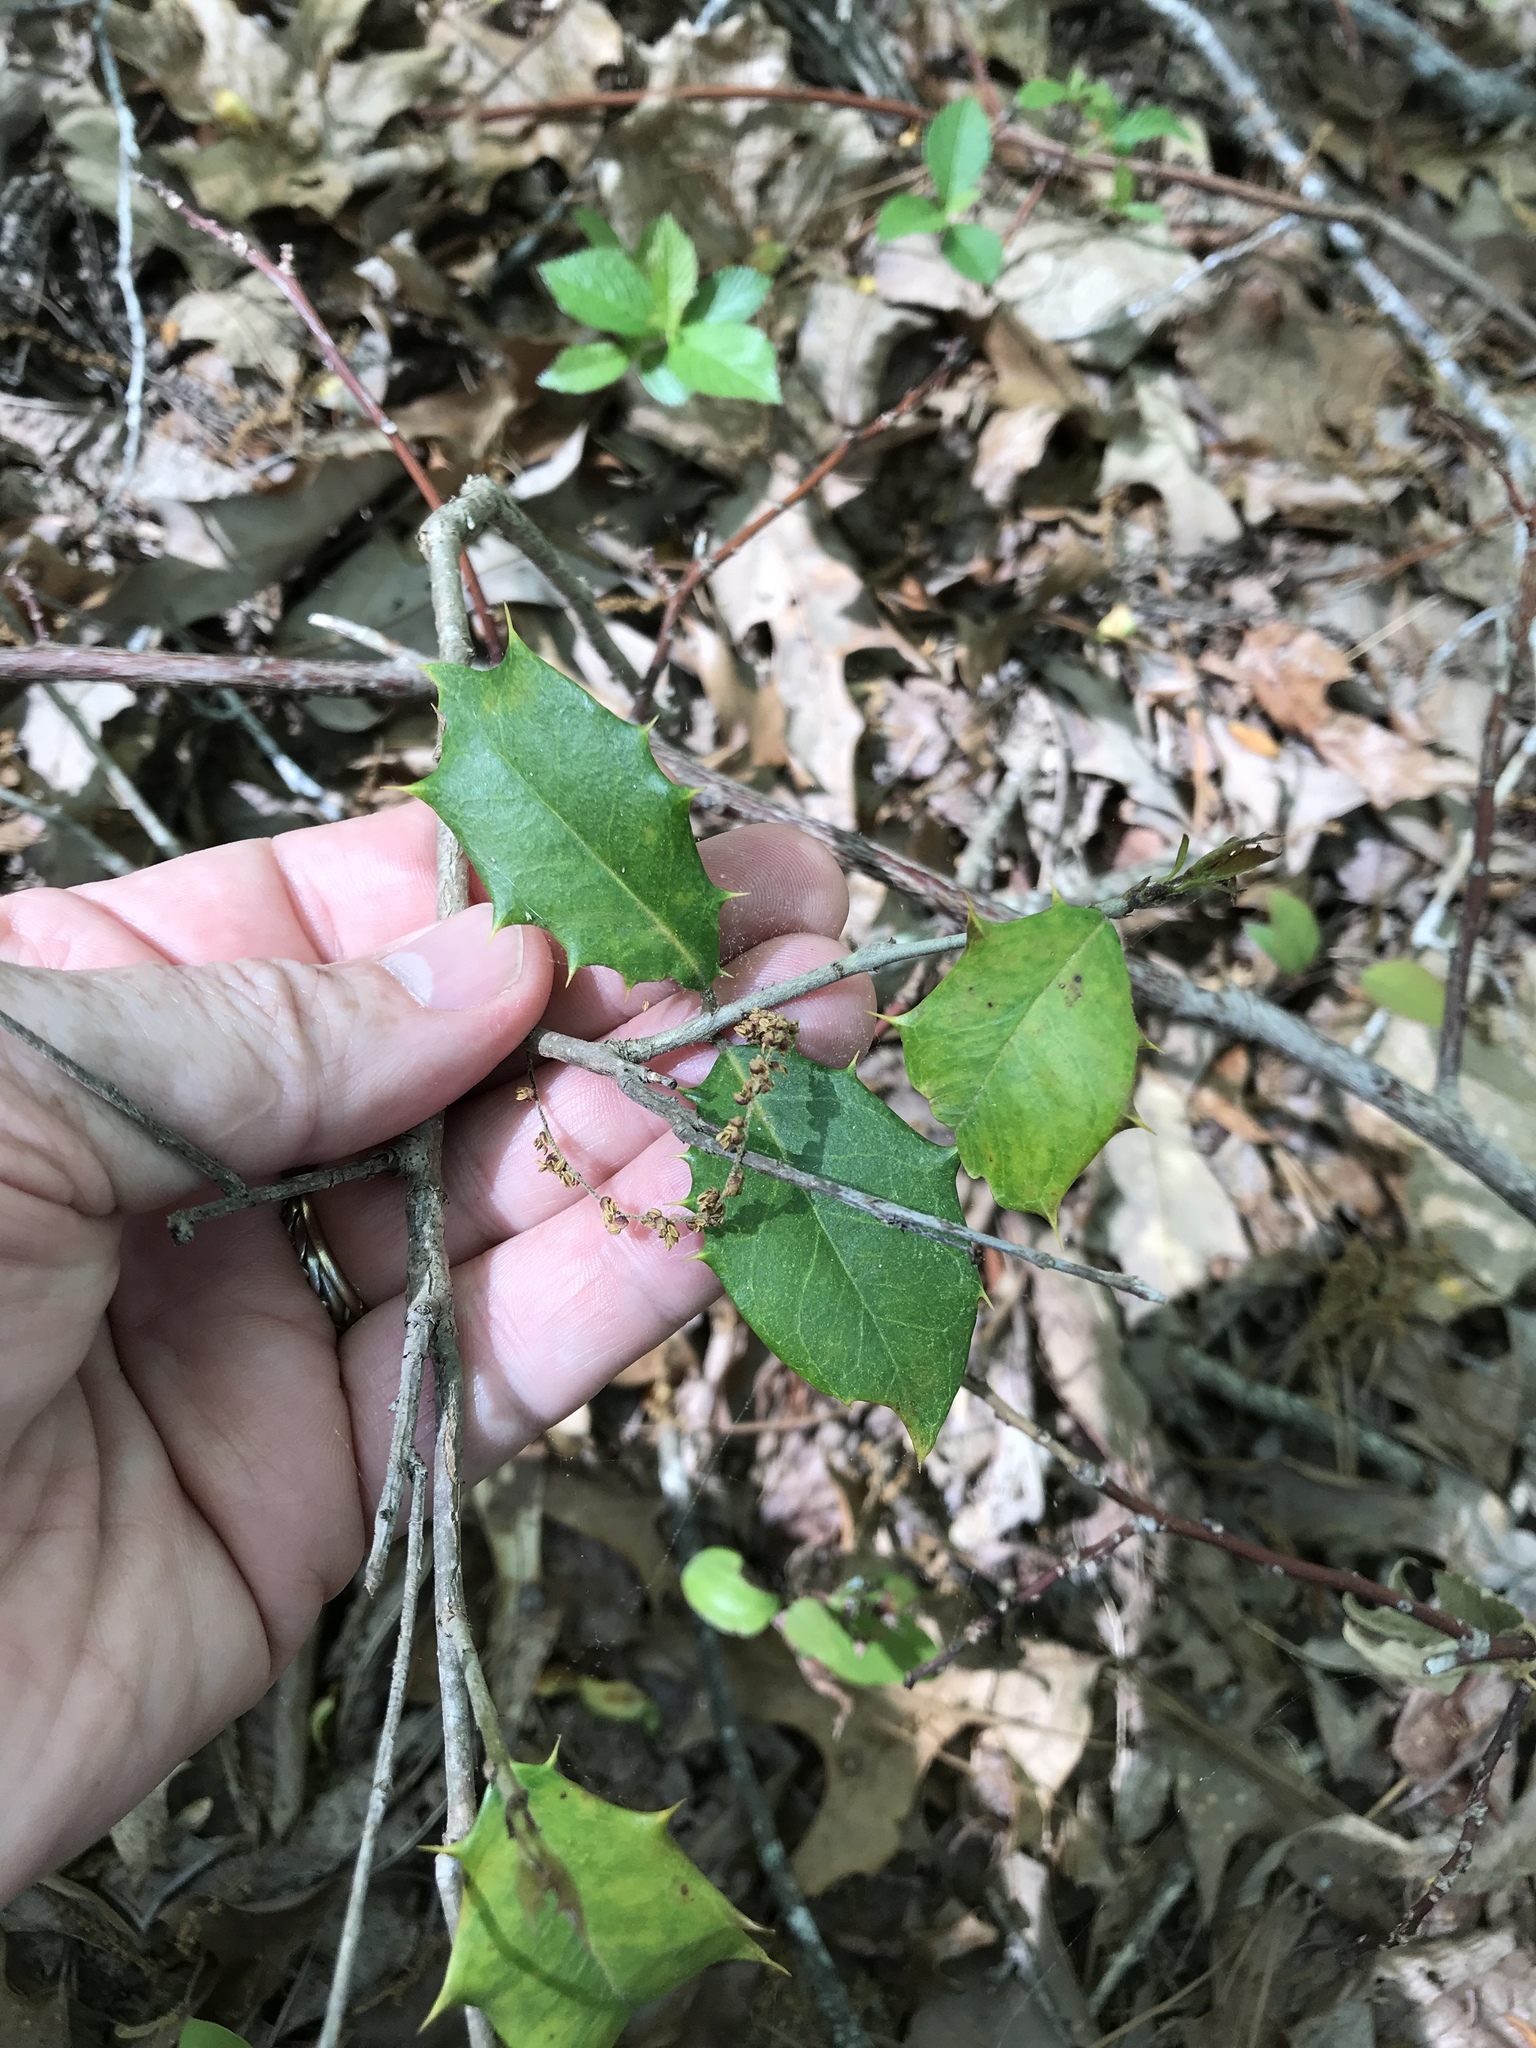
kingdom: Plantae
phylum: Tracheophyta
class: Magnoliopsida
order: Aquifoliales
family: Aquifoliaceae
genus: Ilex
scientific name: Ilex opaca
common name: American holly
